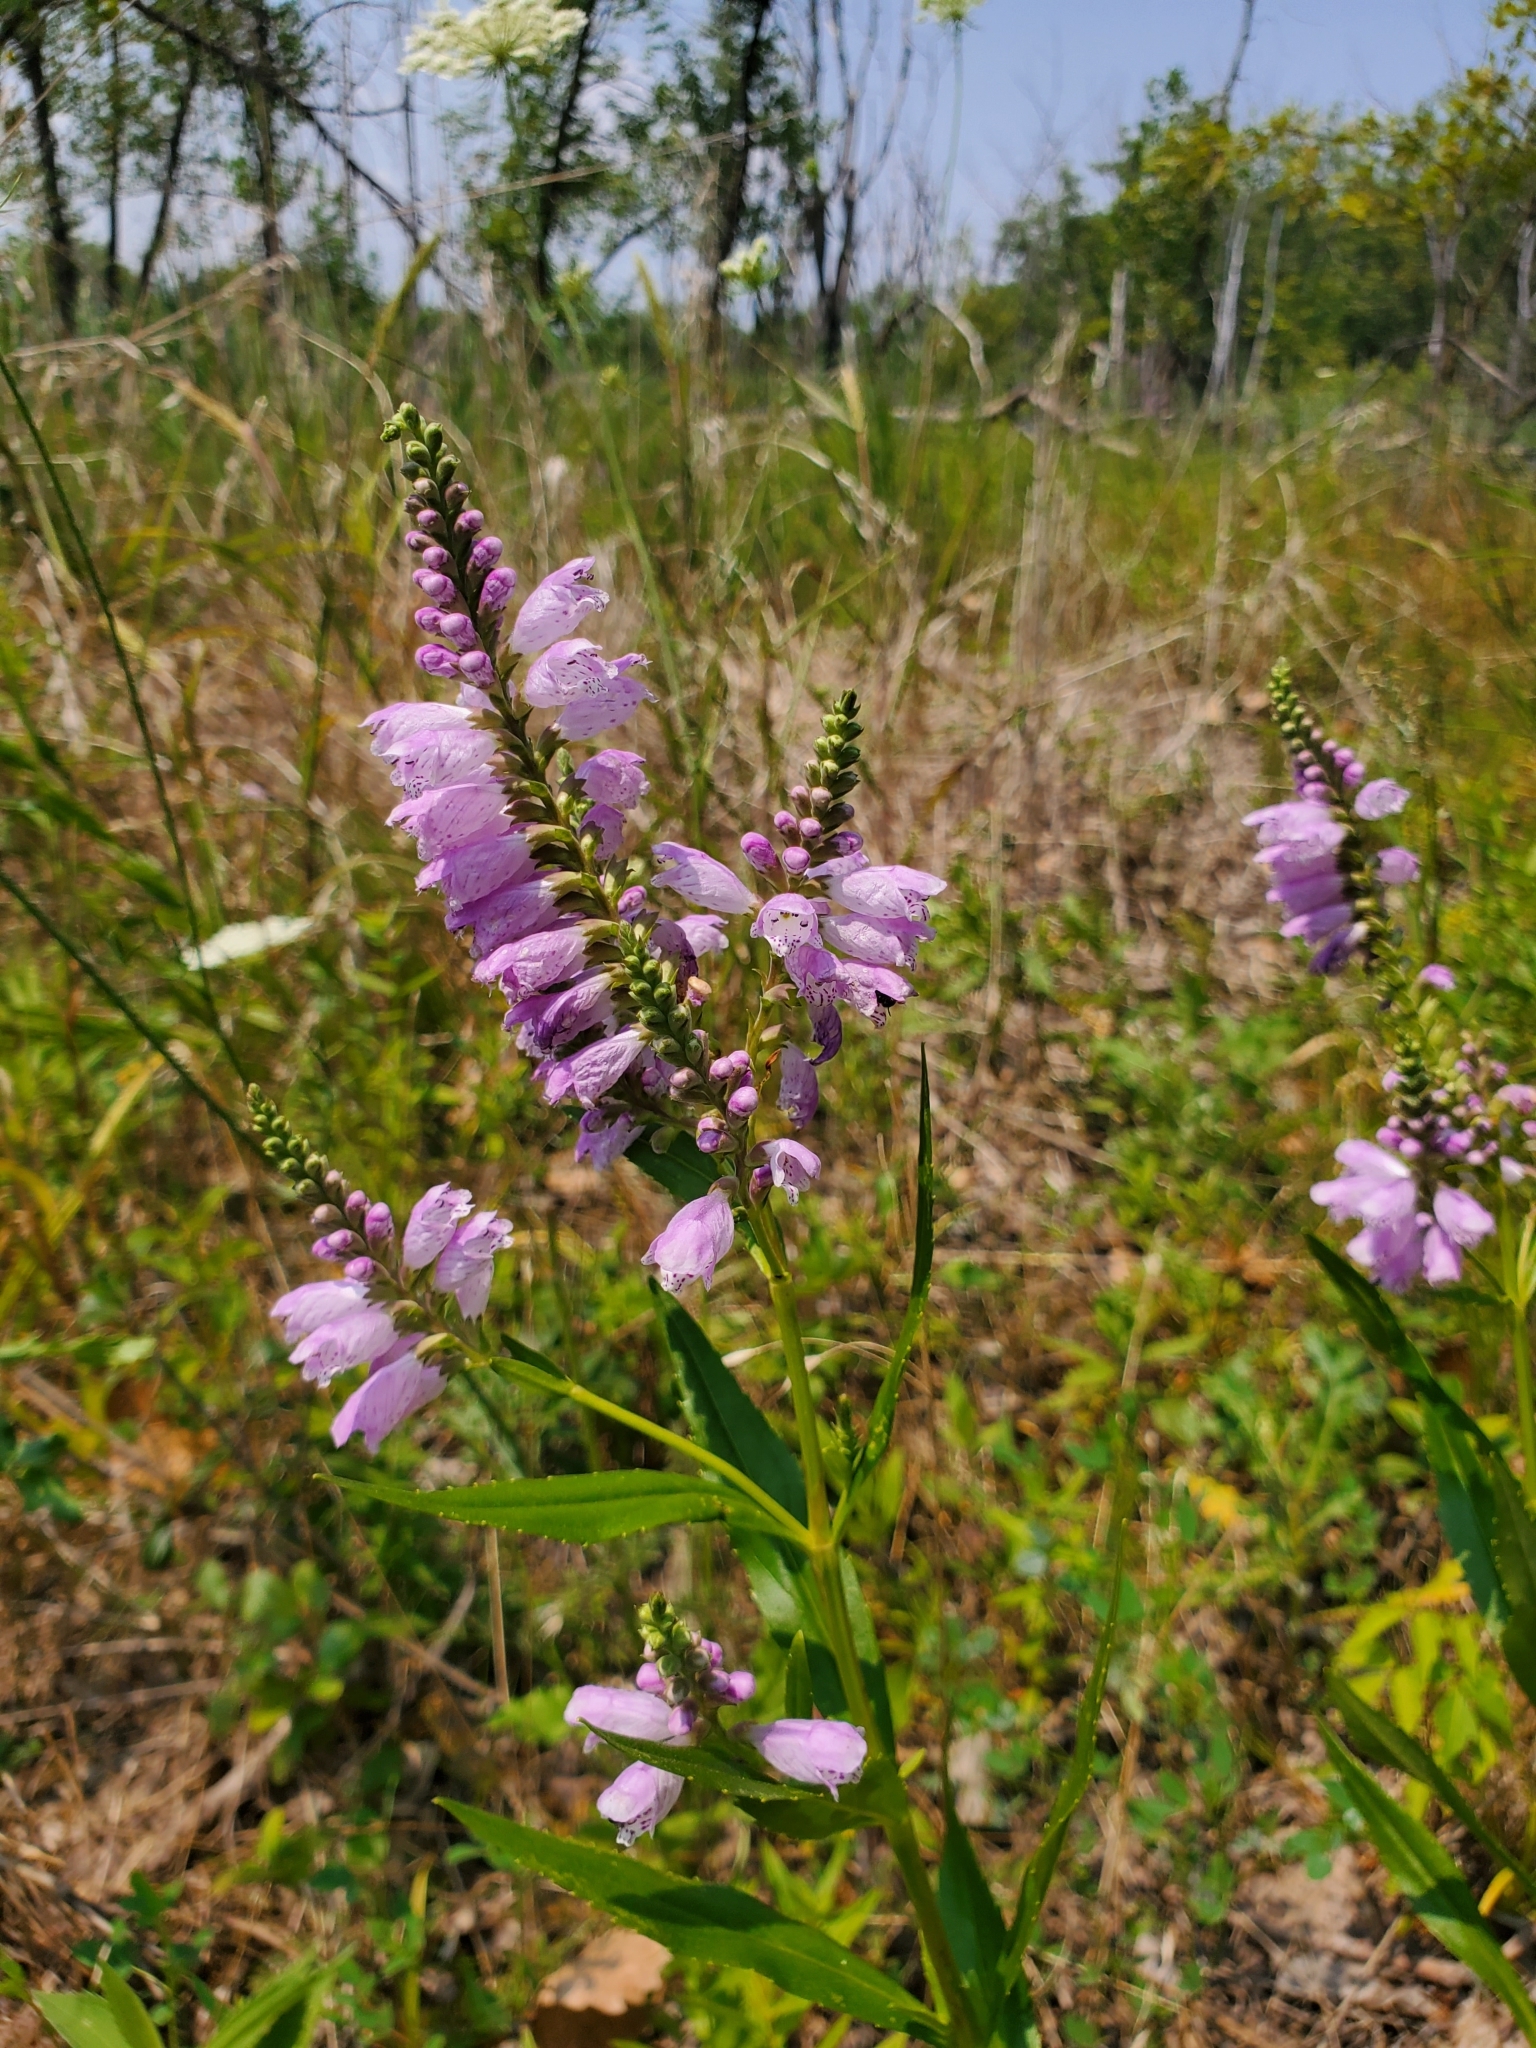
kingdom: Plantae
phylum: Tracheophyta
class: Magnoliopsida
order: Lamiales
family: Lamiaceae
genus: Physostegia
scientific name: Physostegia virginiana
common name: Obedient-plant
